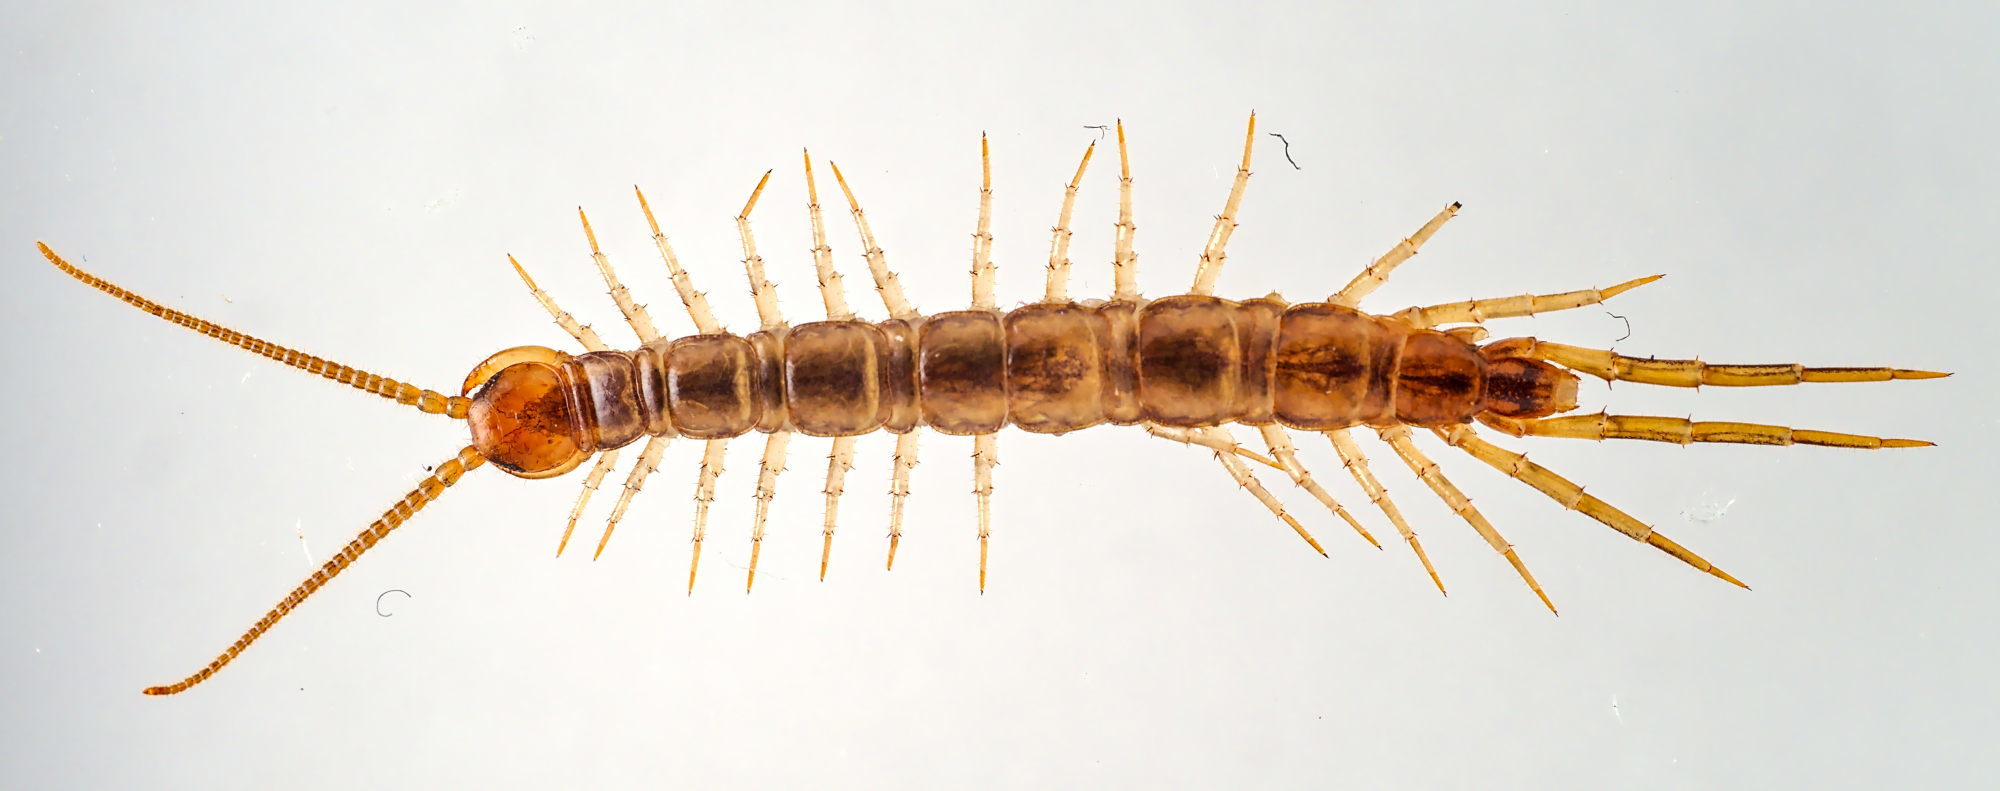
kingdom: Animalia
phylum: Arthropoda
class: Chilopoda
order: Lithobiomorpha
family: Lithobiidae
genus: Lithobius
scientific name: Lithobius melanops
